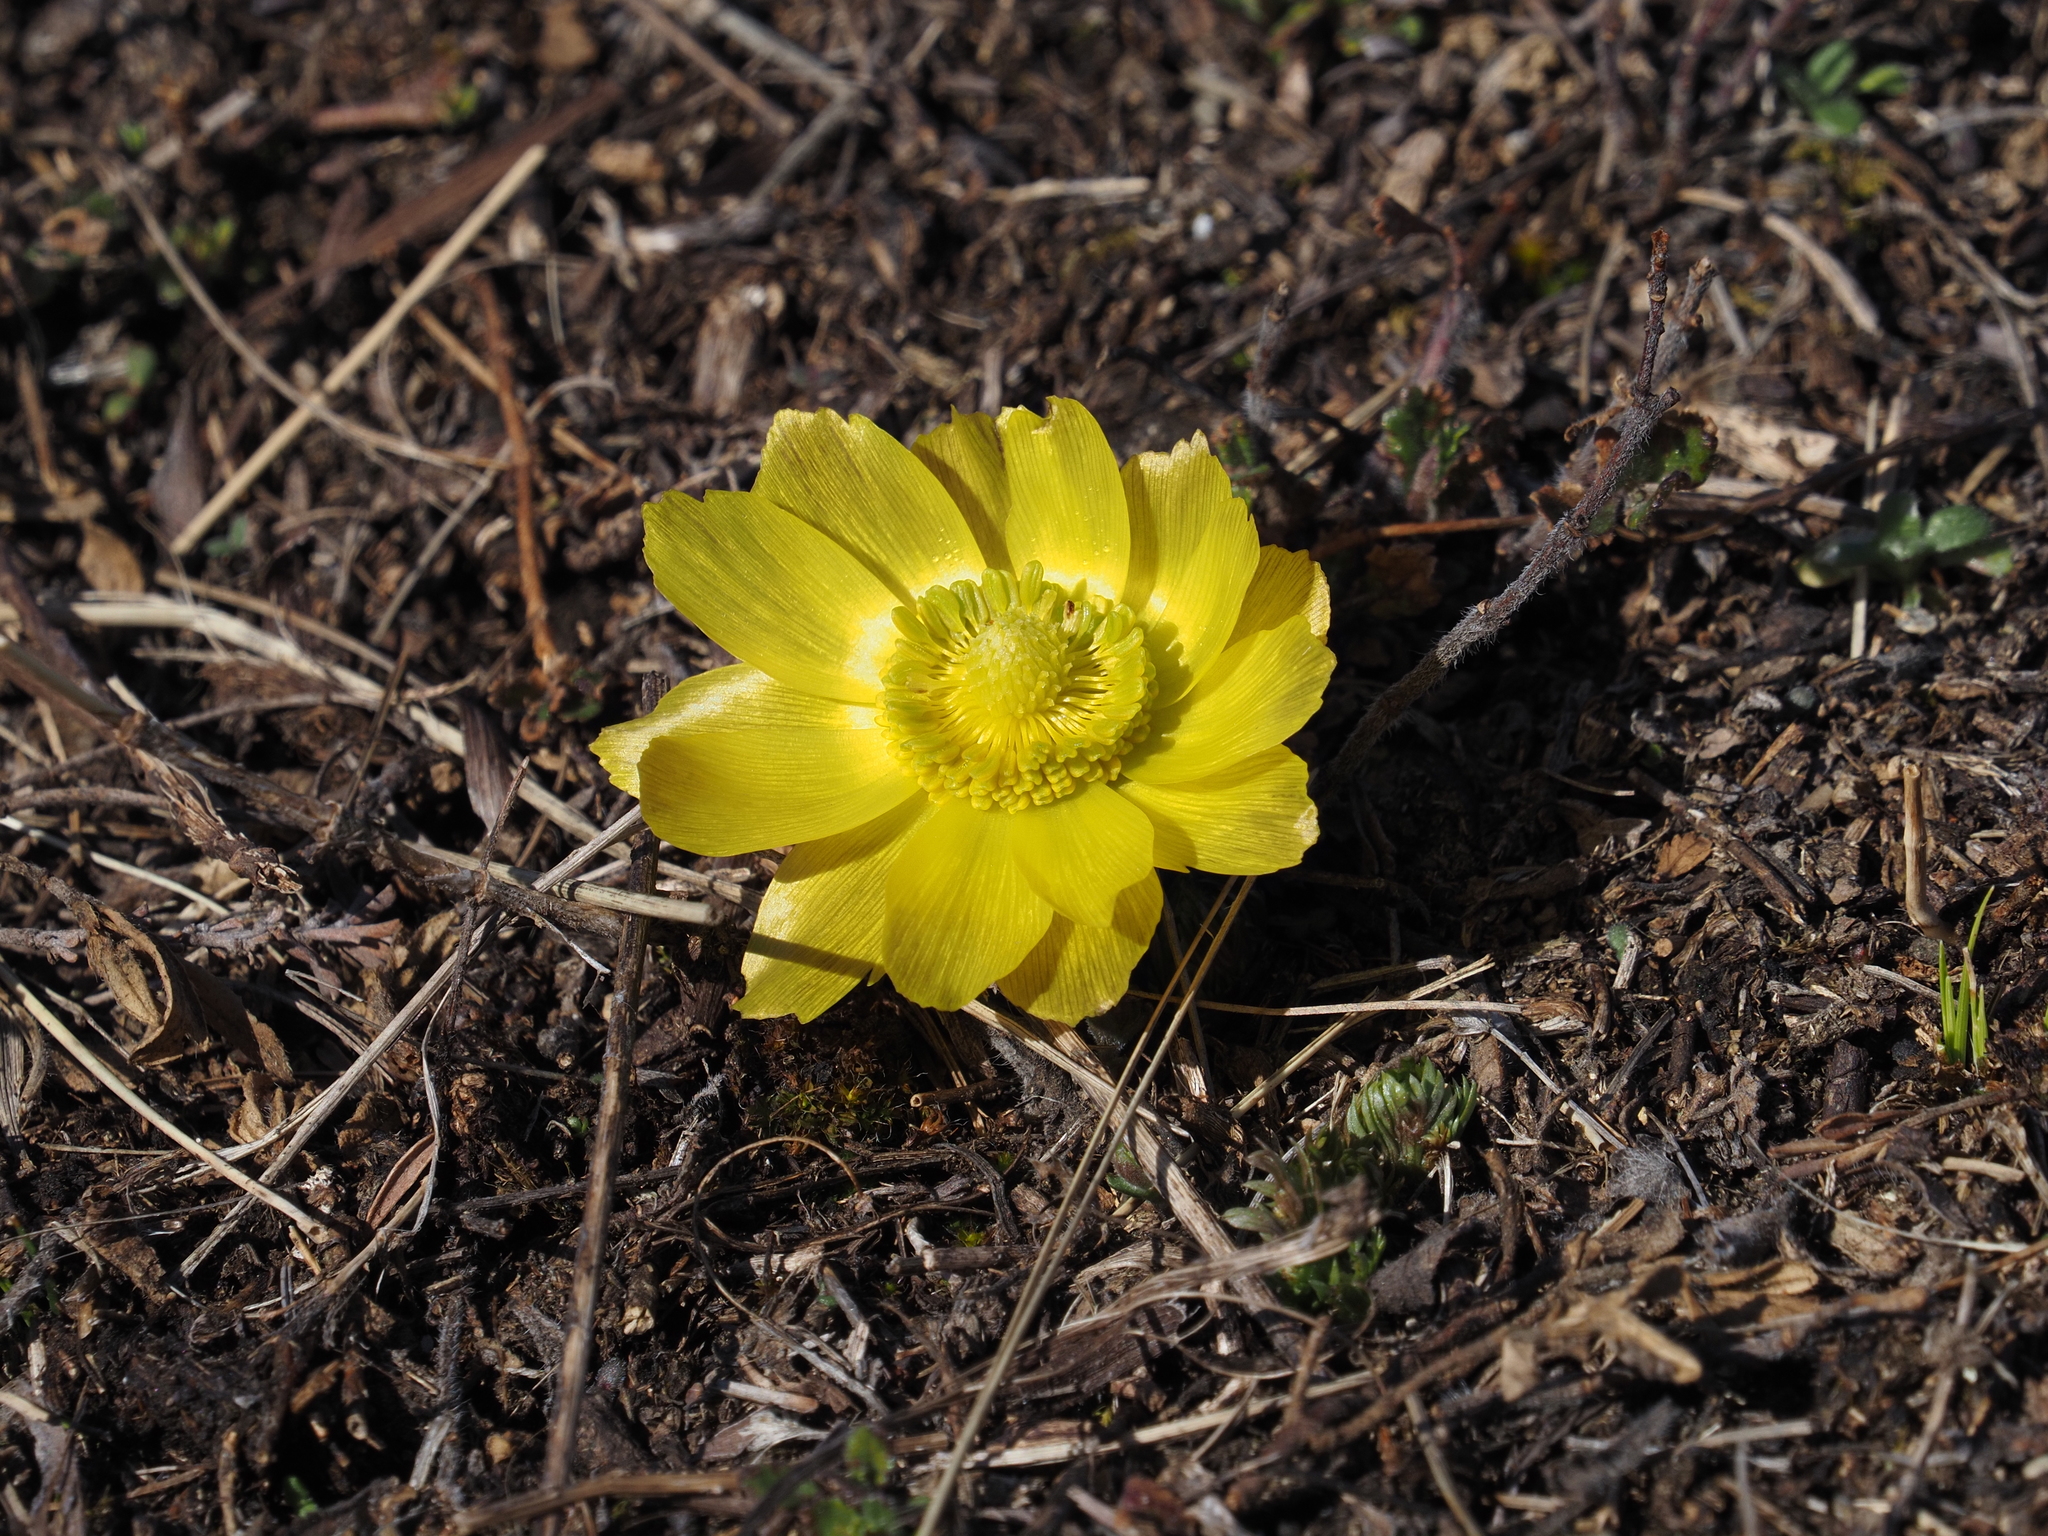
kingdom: Plantae
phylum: Tracheophyta
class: Magnoliopsida
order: Ranunculales
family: Ranunculaceae
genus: Adonis
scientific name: Adonis vernalis
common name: Yellow pheasants-eye
